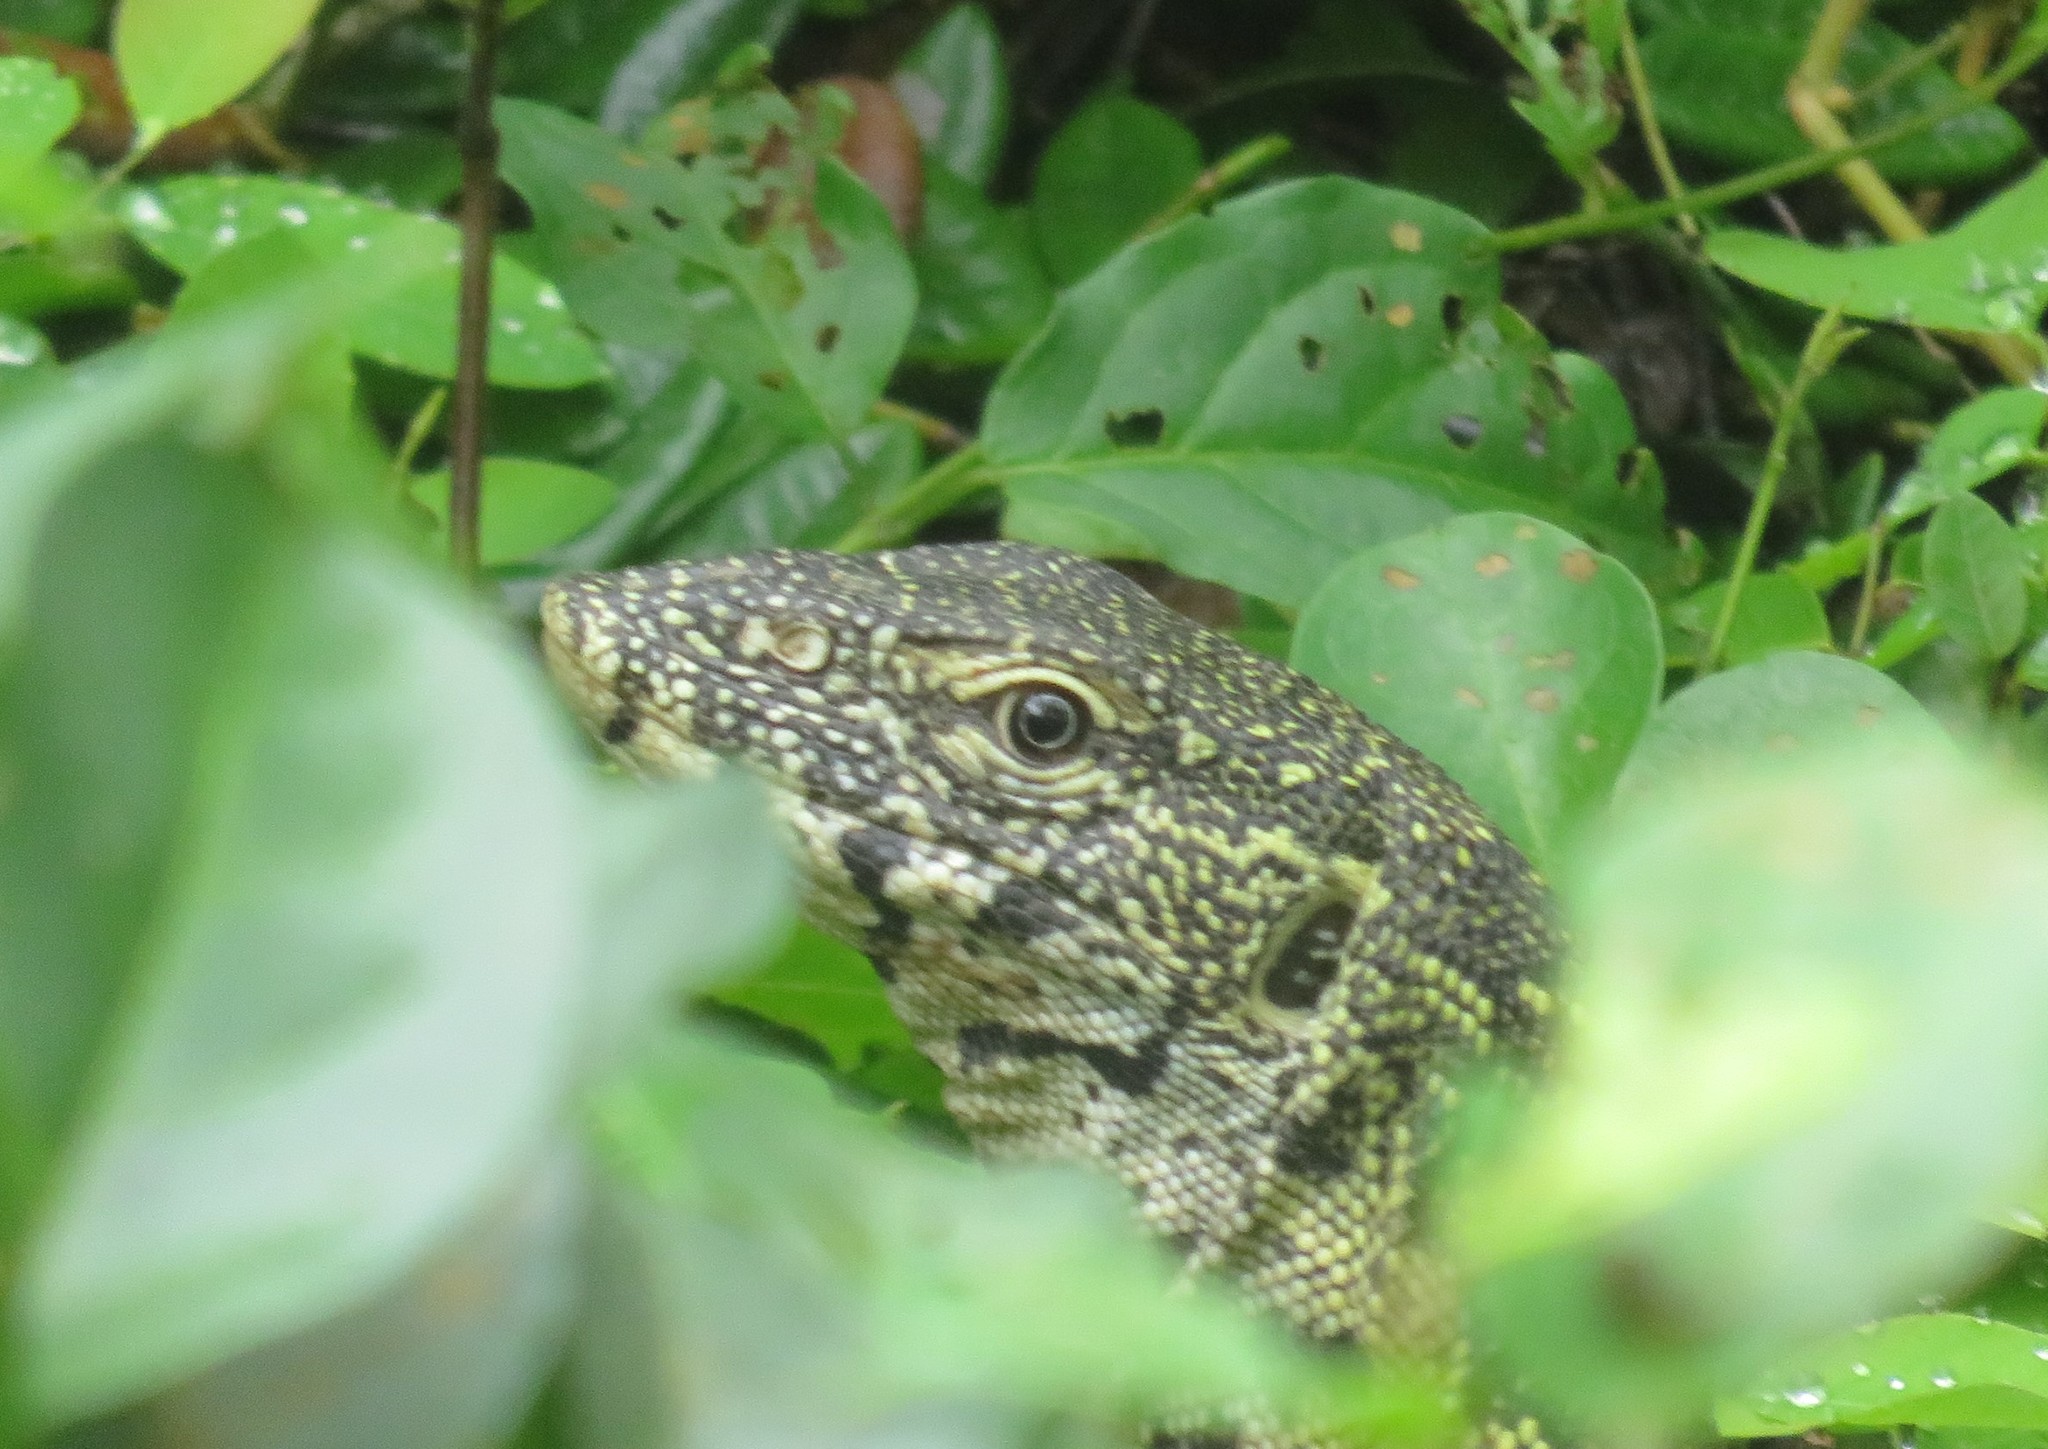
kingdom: Animalia
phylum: Chordata
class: Squamata
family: Varanidae
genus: Varanus
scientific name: Varanus niloticus
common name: Nile monitor
